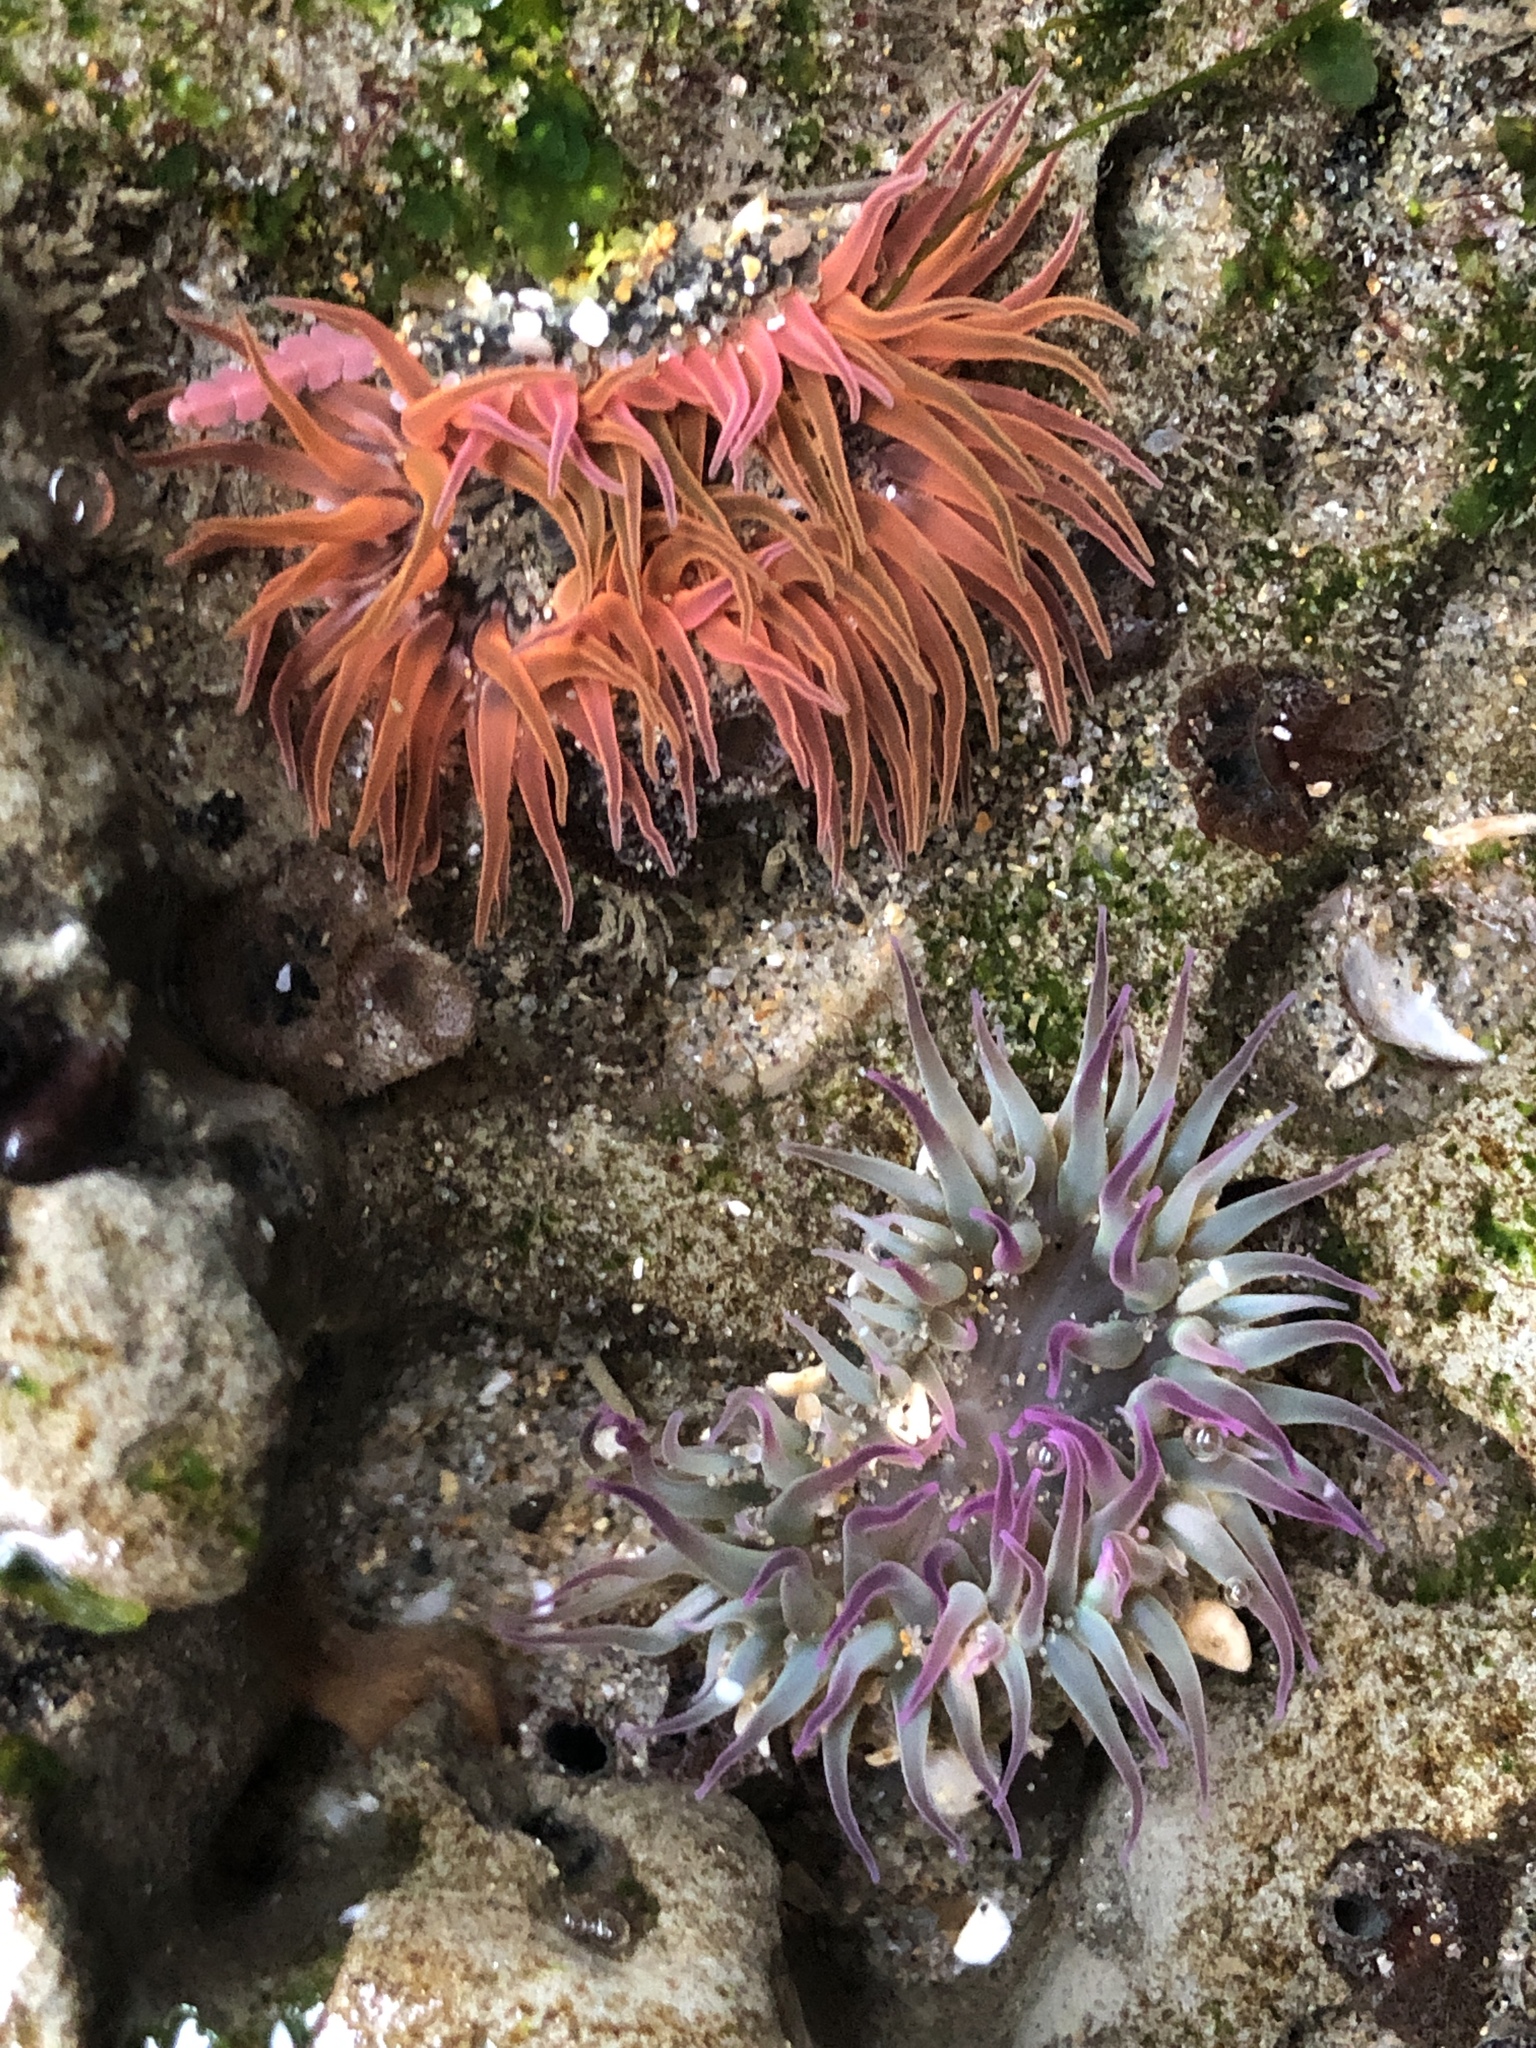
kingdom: Animalia
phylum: Cnidaria
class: Anthozoa
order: Actiniaria
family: Actiniidae
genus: Anthopleura
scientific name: Anthopleura artemisia
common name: Buried sea anemone
